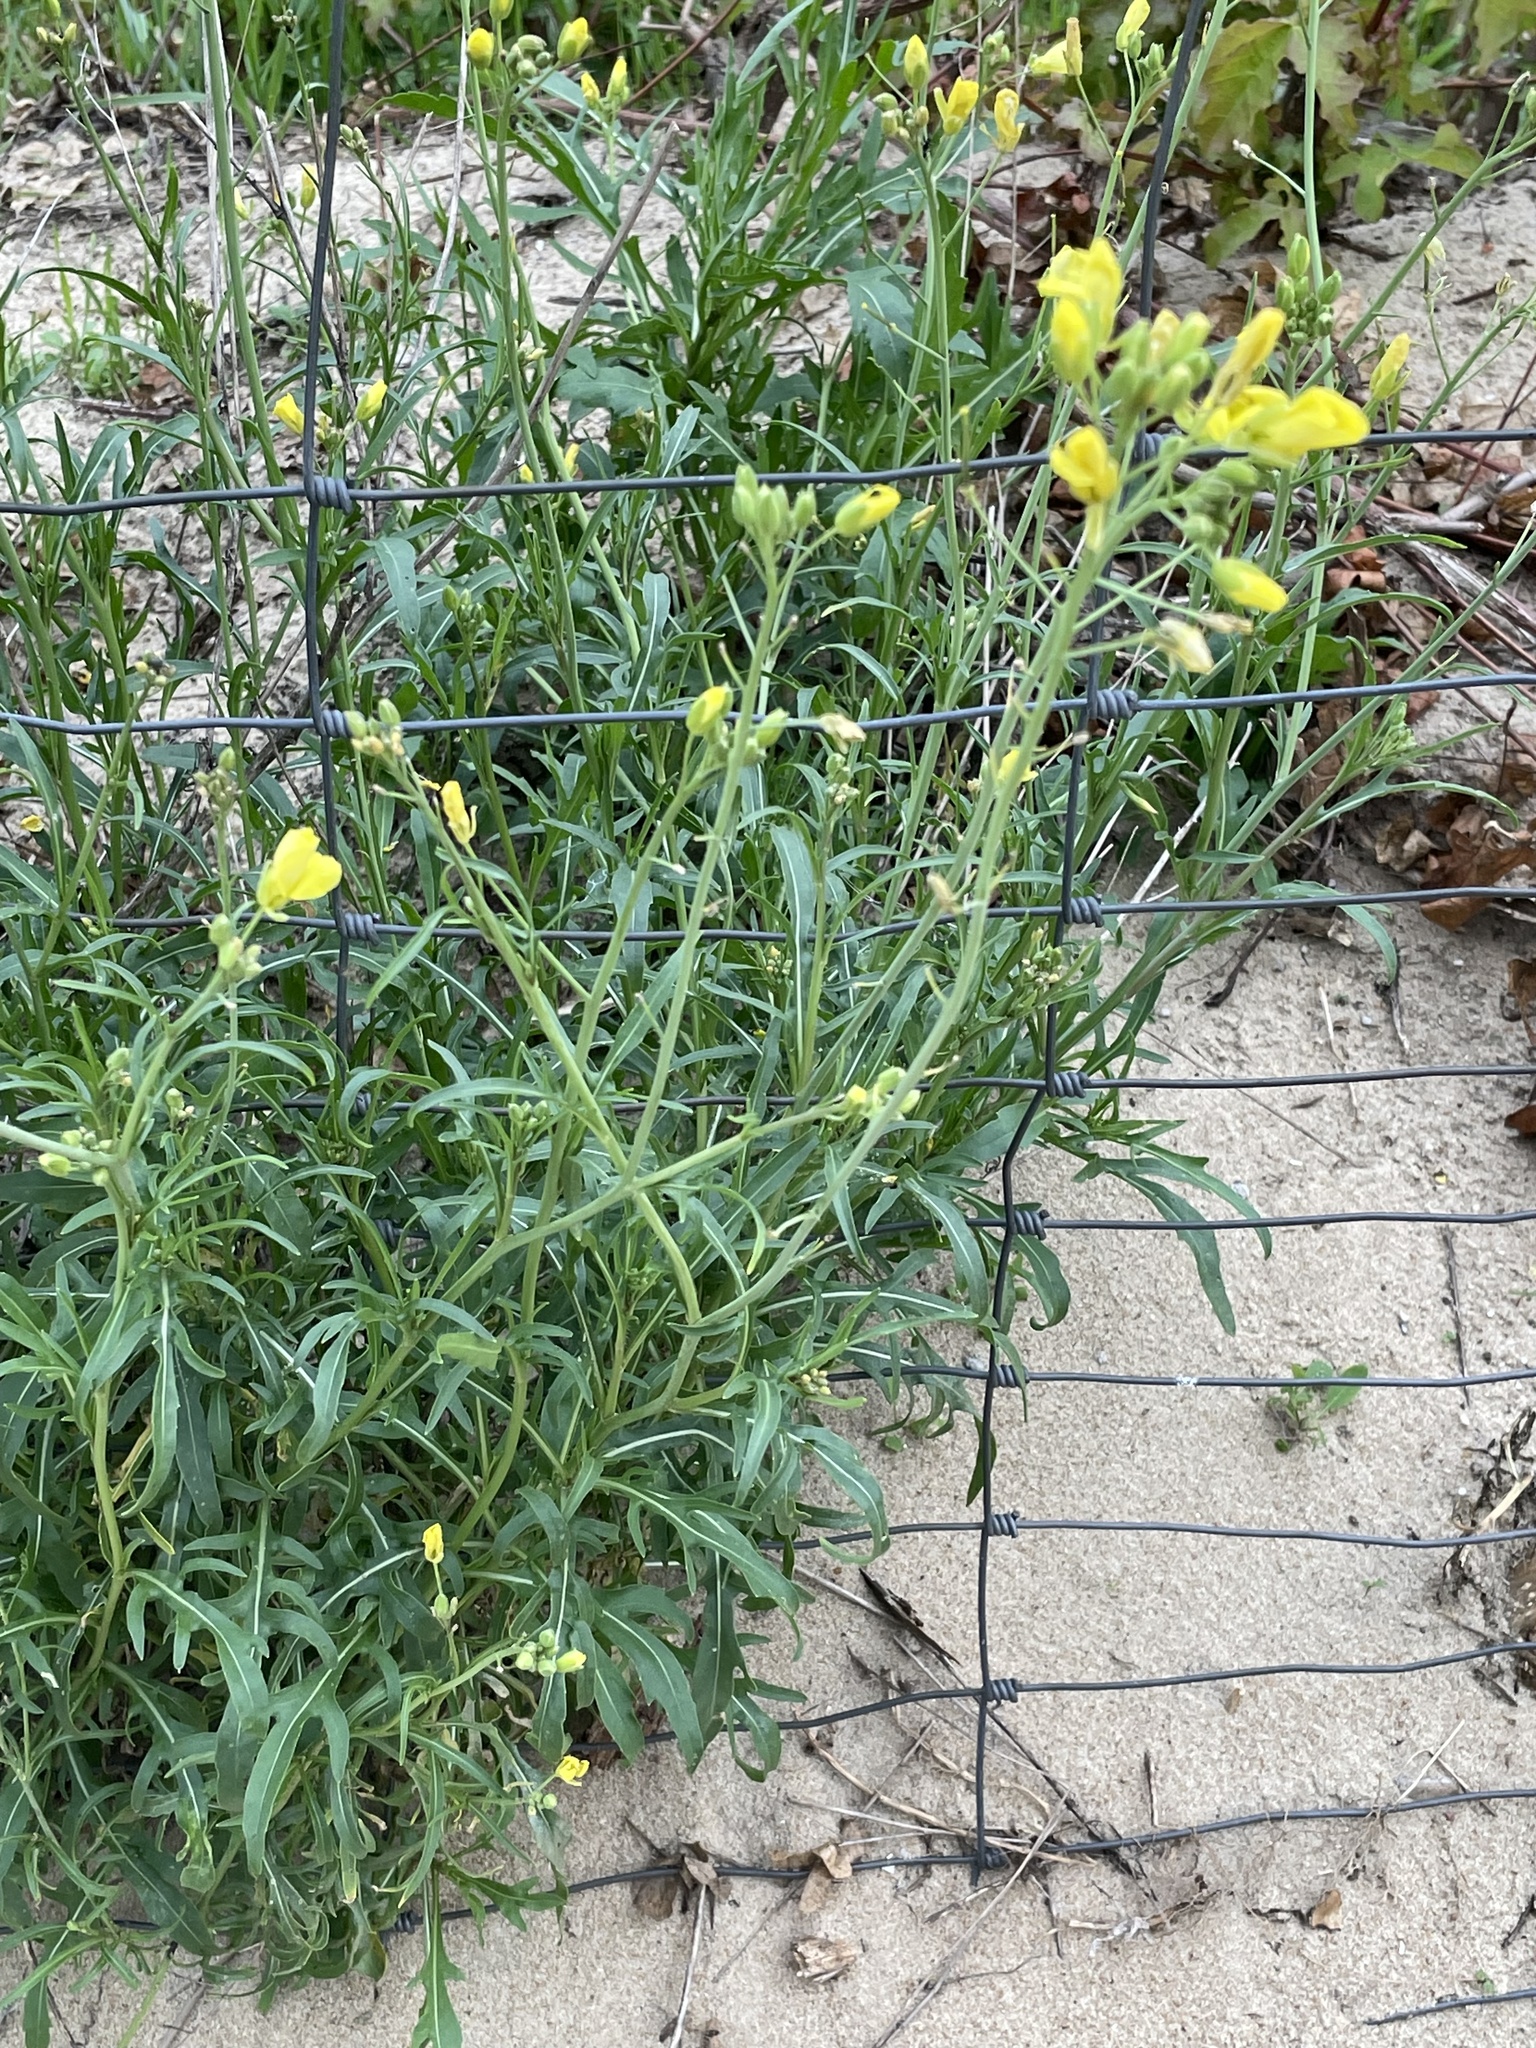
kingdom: Plantae
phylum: Tracheophyta
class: Magnoliopsida
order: Brassicales
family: Brassicaceae
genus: Diplotaxis
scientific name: Diplotaxis tenuifolia
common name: Perennial wall-rocket
